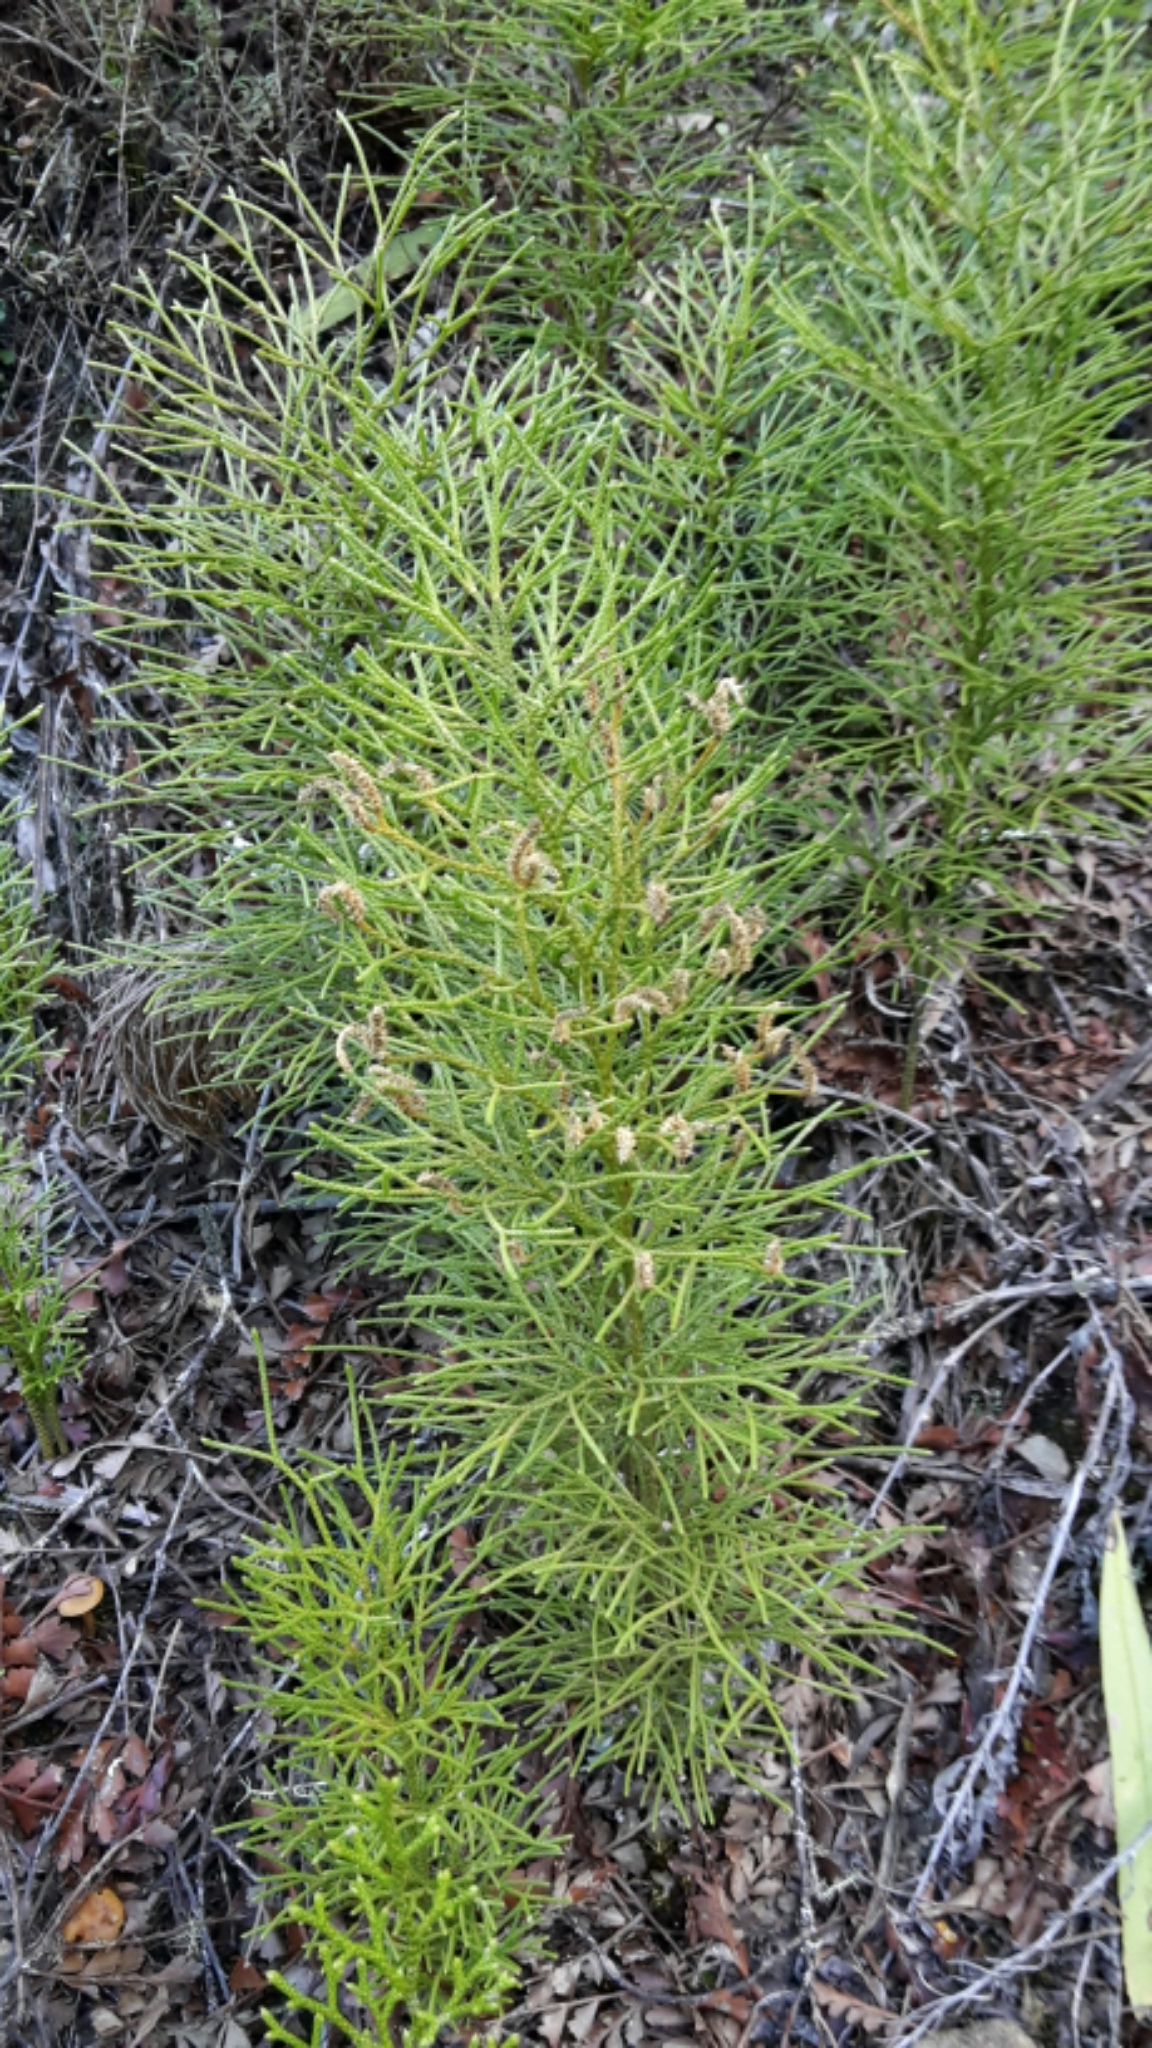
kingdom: Plantae
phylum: Tracheophyta
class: Lycopodiopsida
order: Lycopodiales
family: Lycopodiaceae
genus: Pseudolycopodium
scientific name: Pseudolycopodium densum
